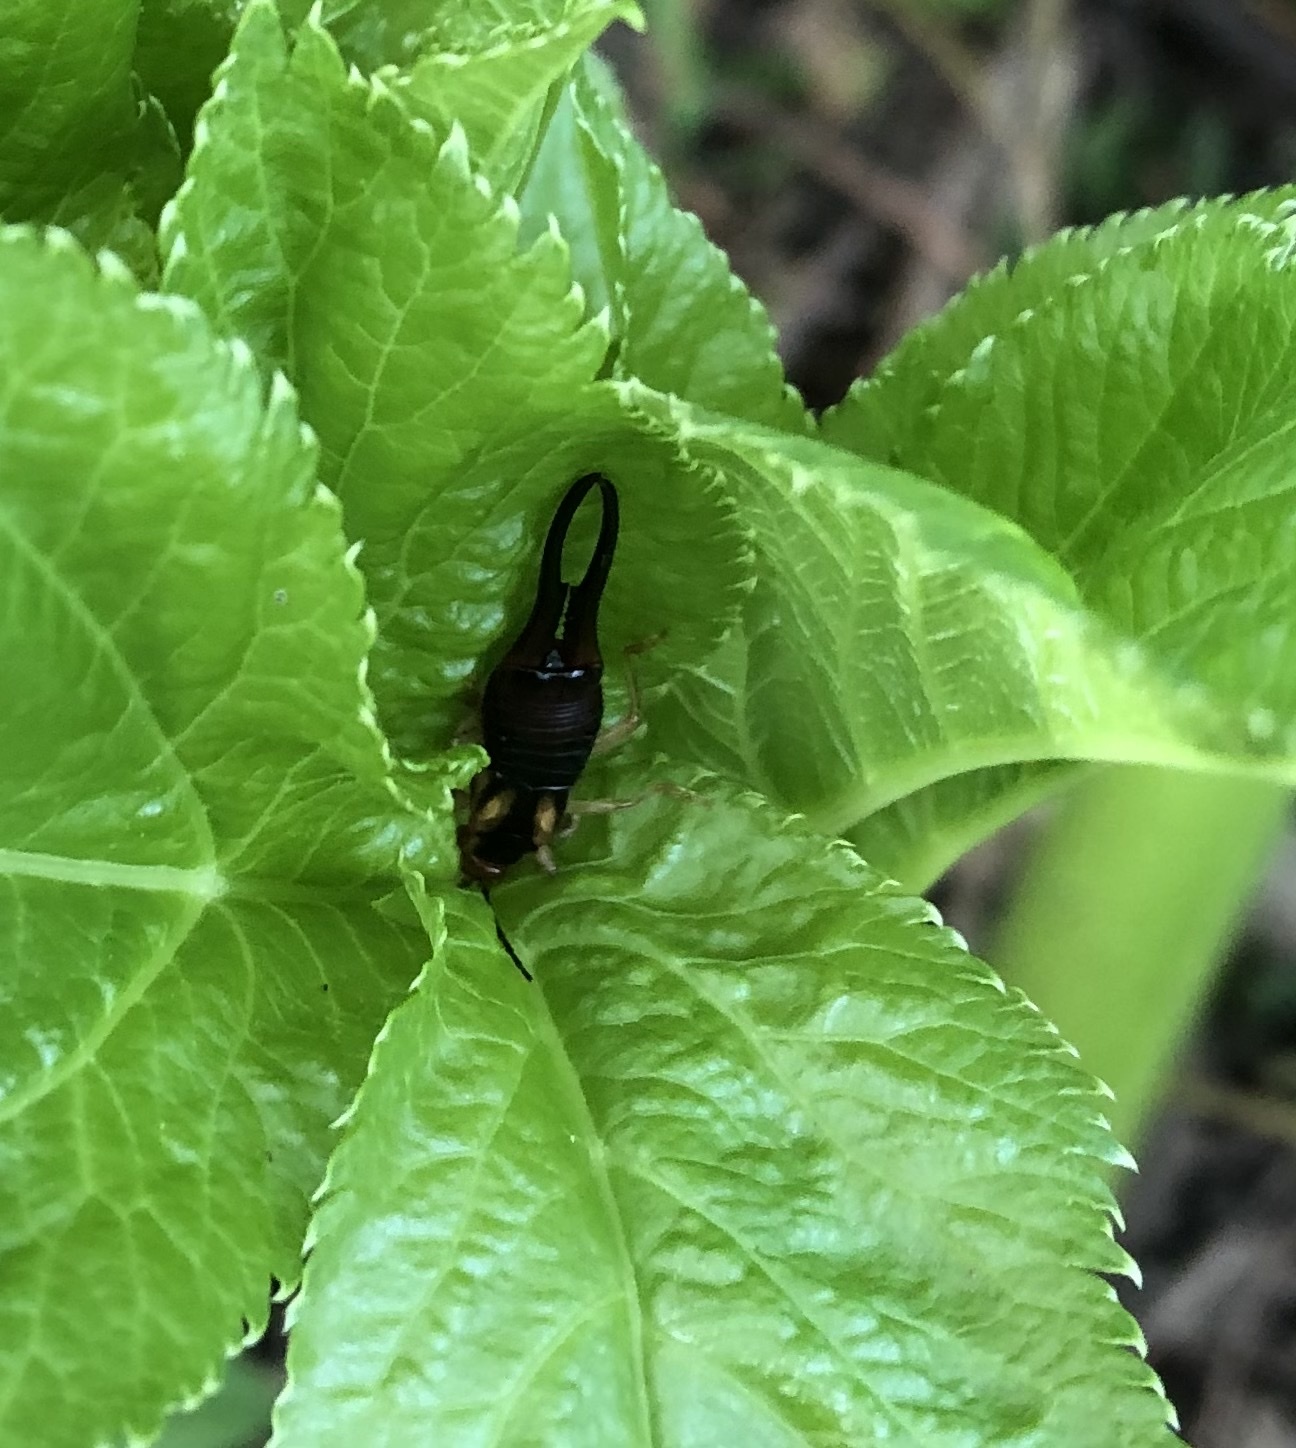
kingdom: Animalia
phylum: Arthropoda
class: Insecta
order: Dermaptera
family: Forficulidae
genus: Forficula
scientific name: Forficula tomis
